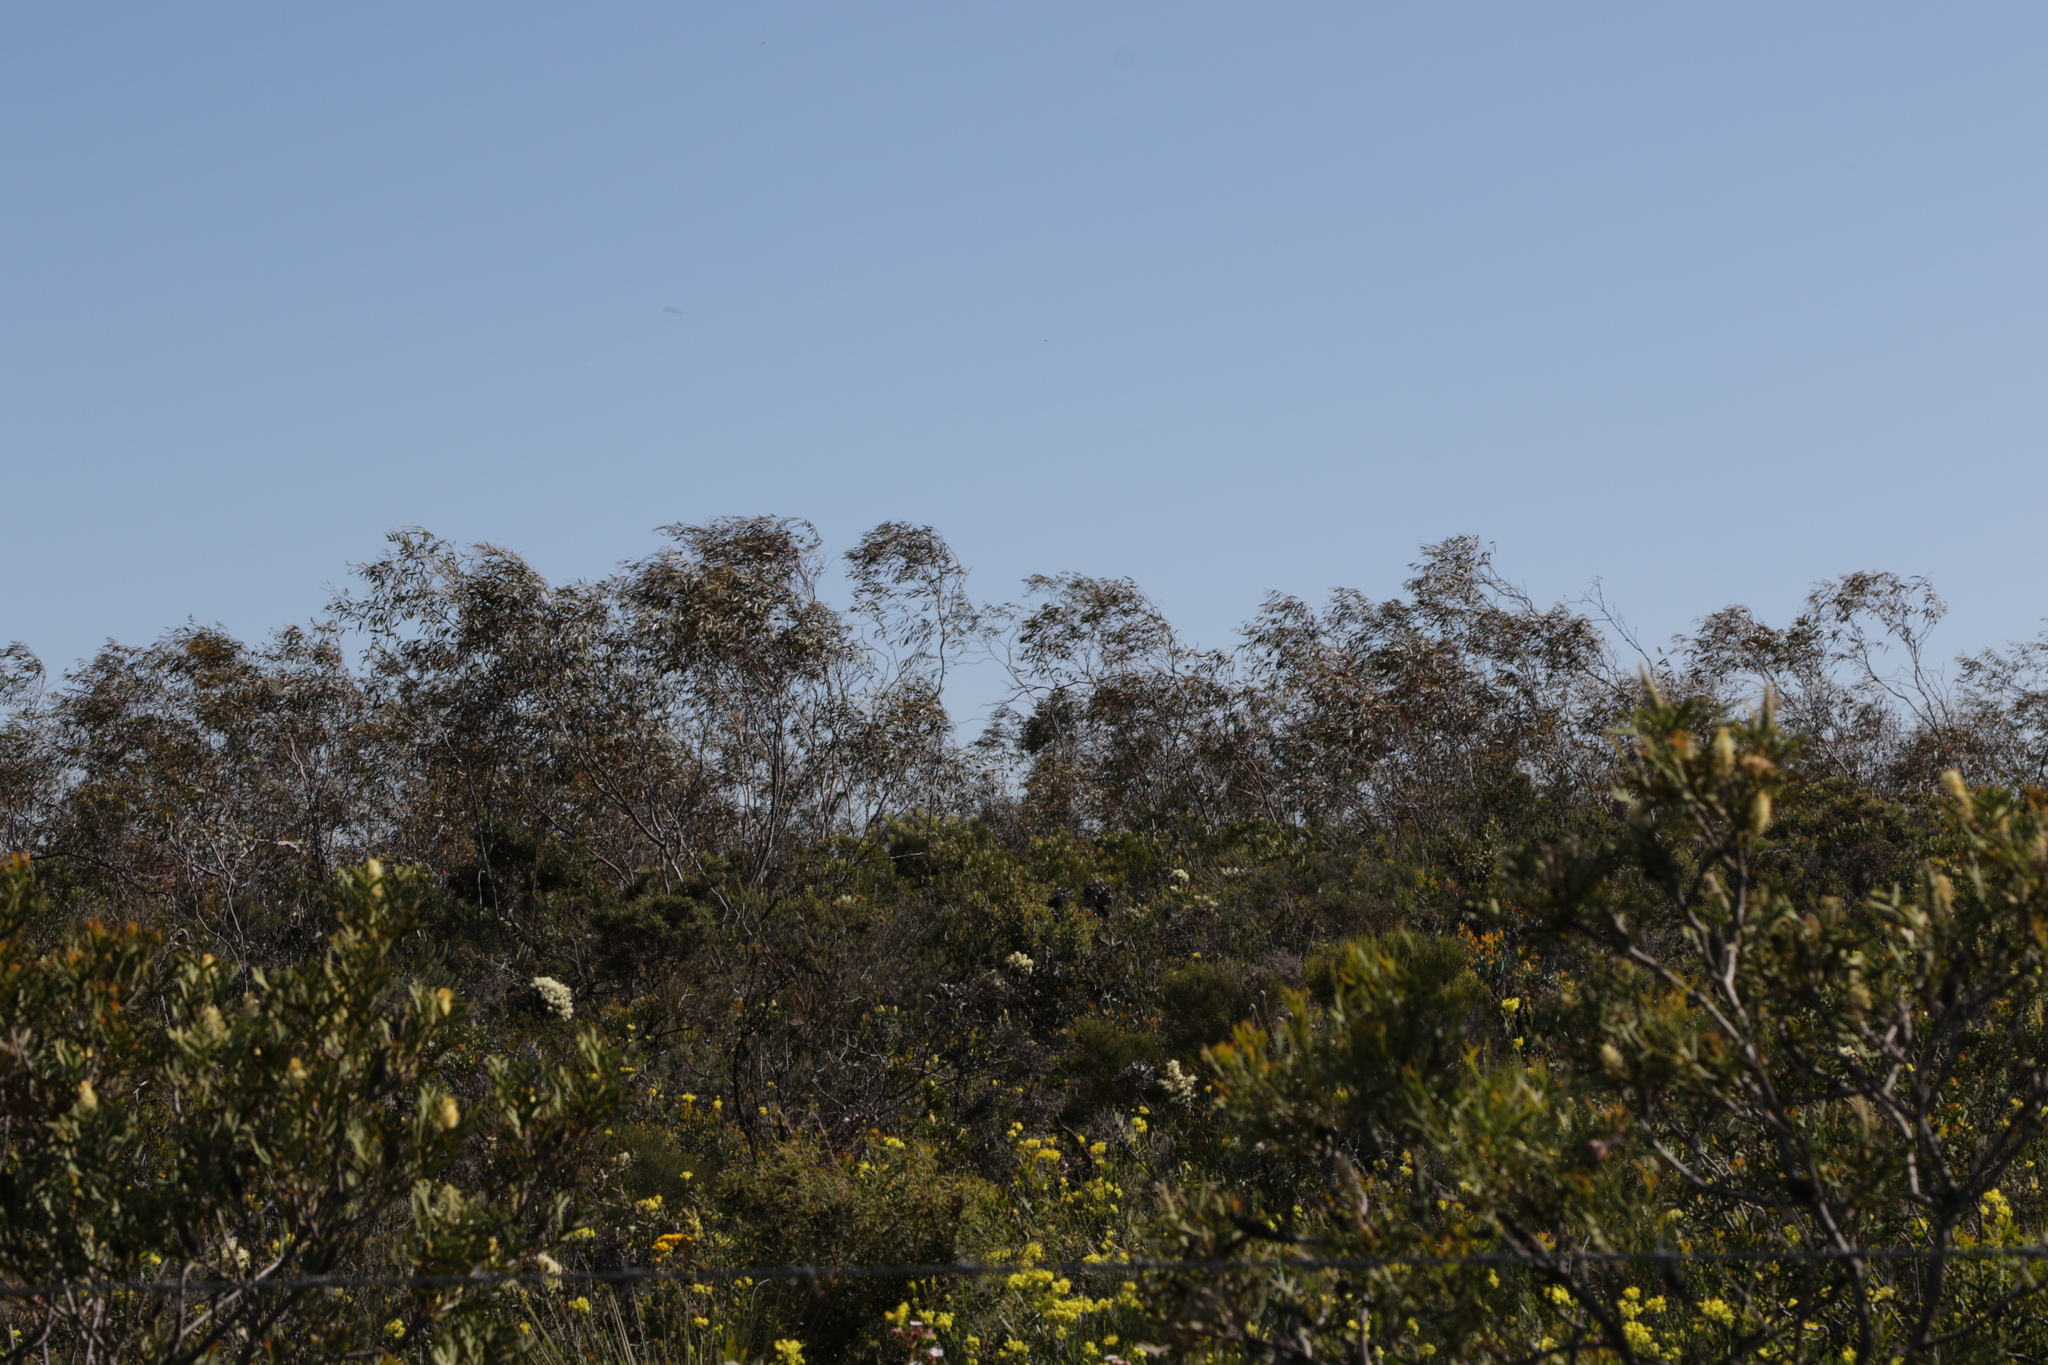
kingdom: Plantae
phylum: Tracheophyta
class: Magnoliopsida
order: Myrtales
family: Myrtaceae
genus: Eucalyptus
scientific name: Eucalyptus pendens
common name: Badgingarra mallee
